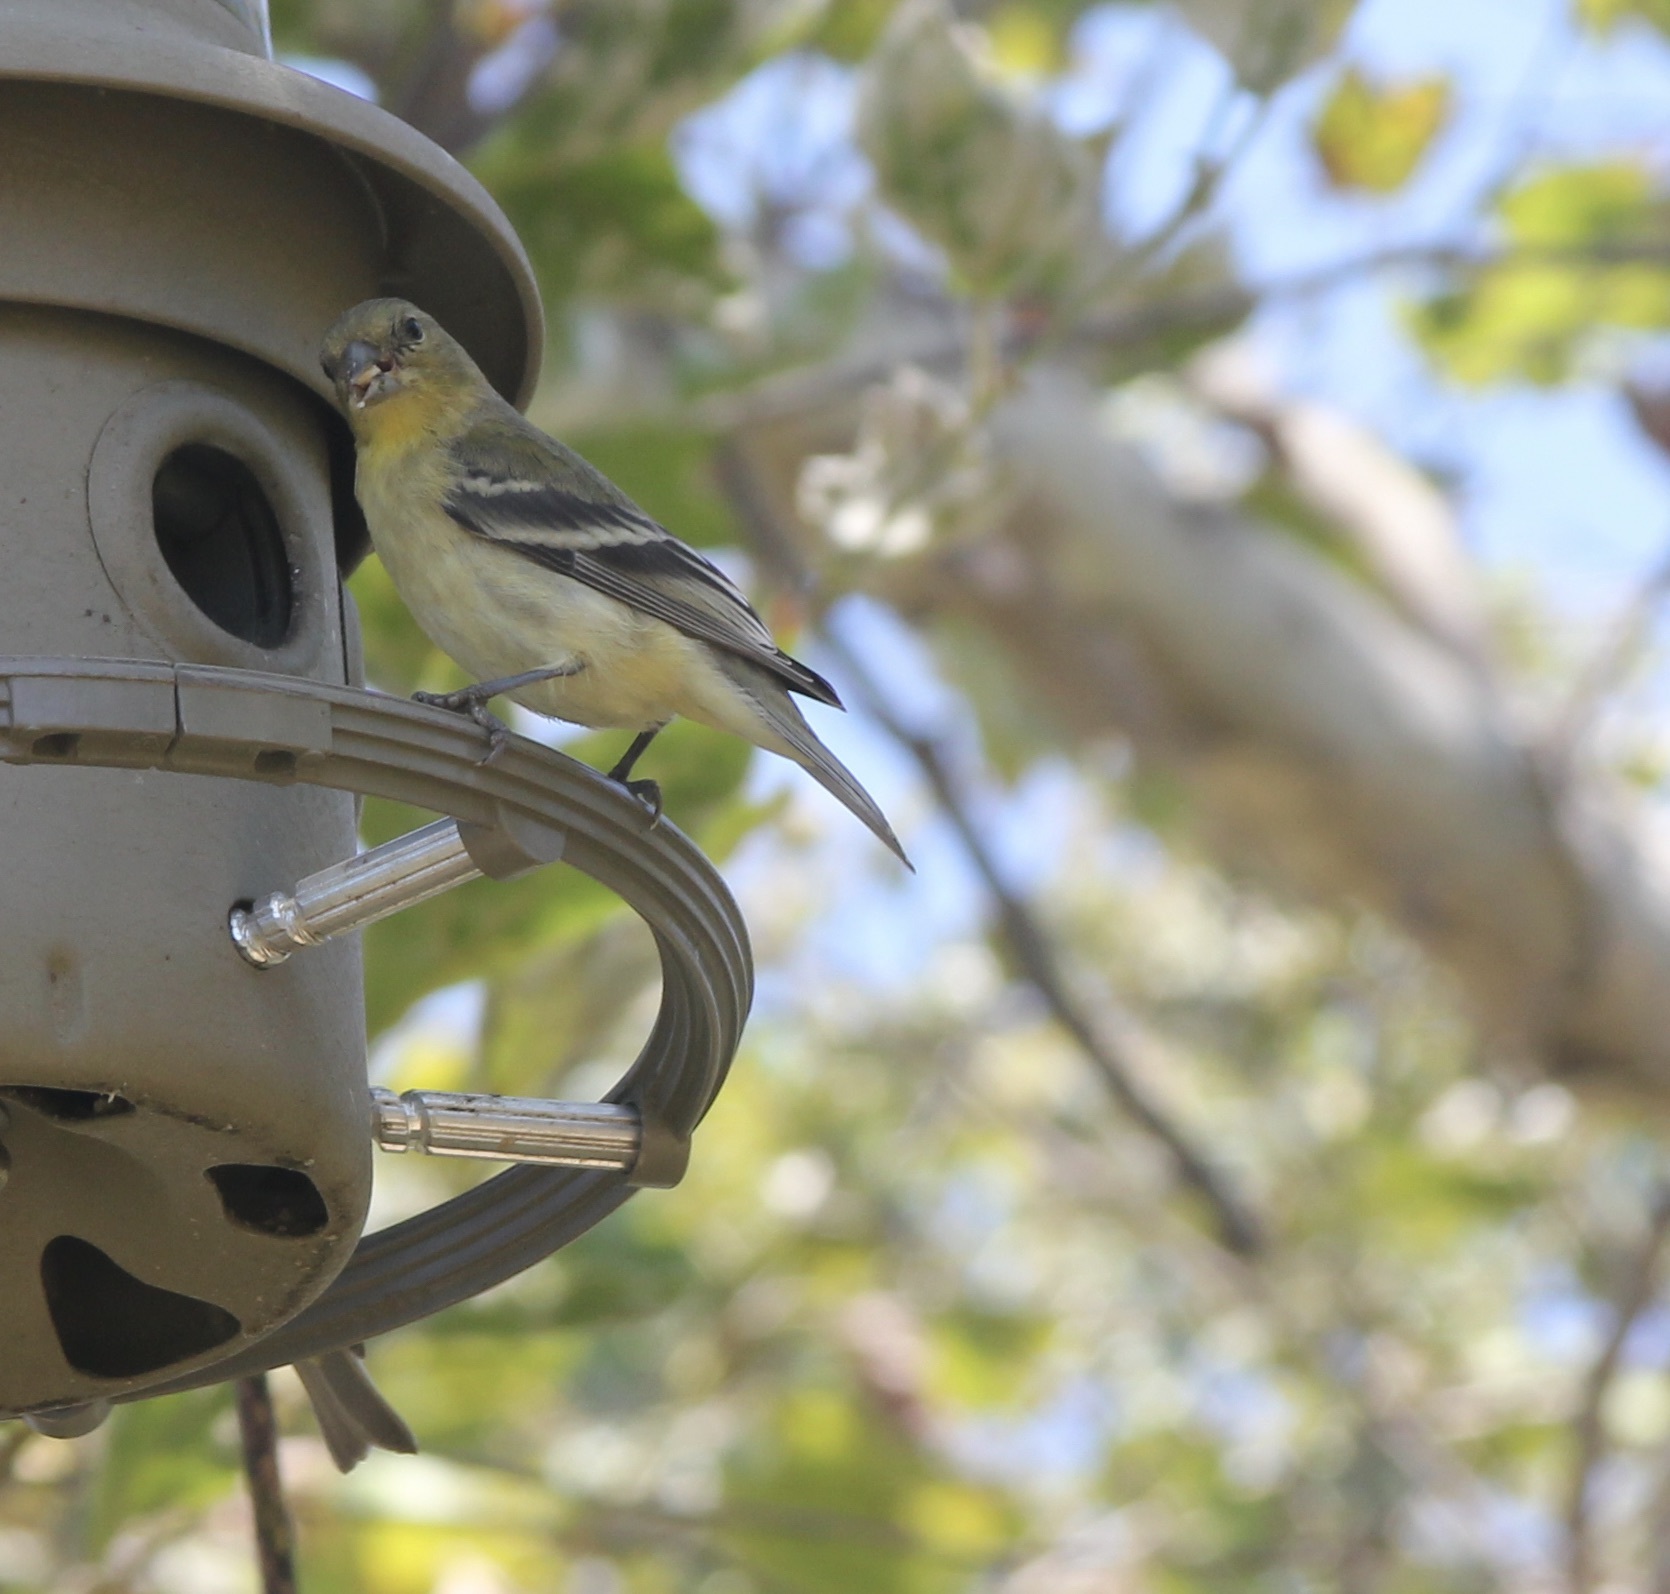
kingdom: Animalia
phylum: Chordata
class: Aves
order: Passeriformes
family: Fringillidae
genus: Spinus
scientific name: Spinus psaltria
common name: Lesser goldfinch
